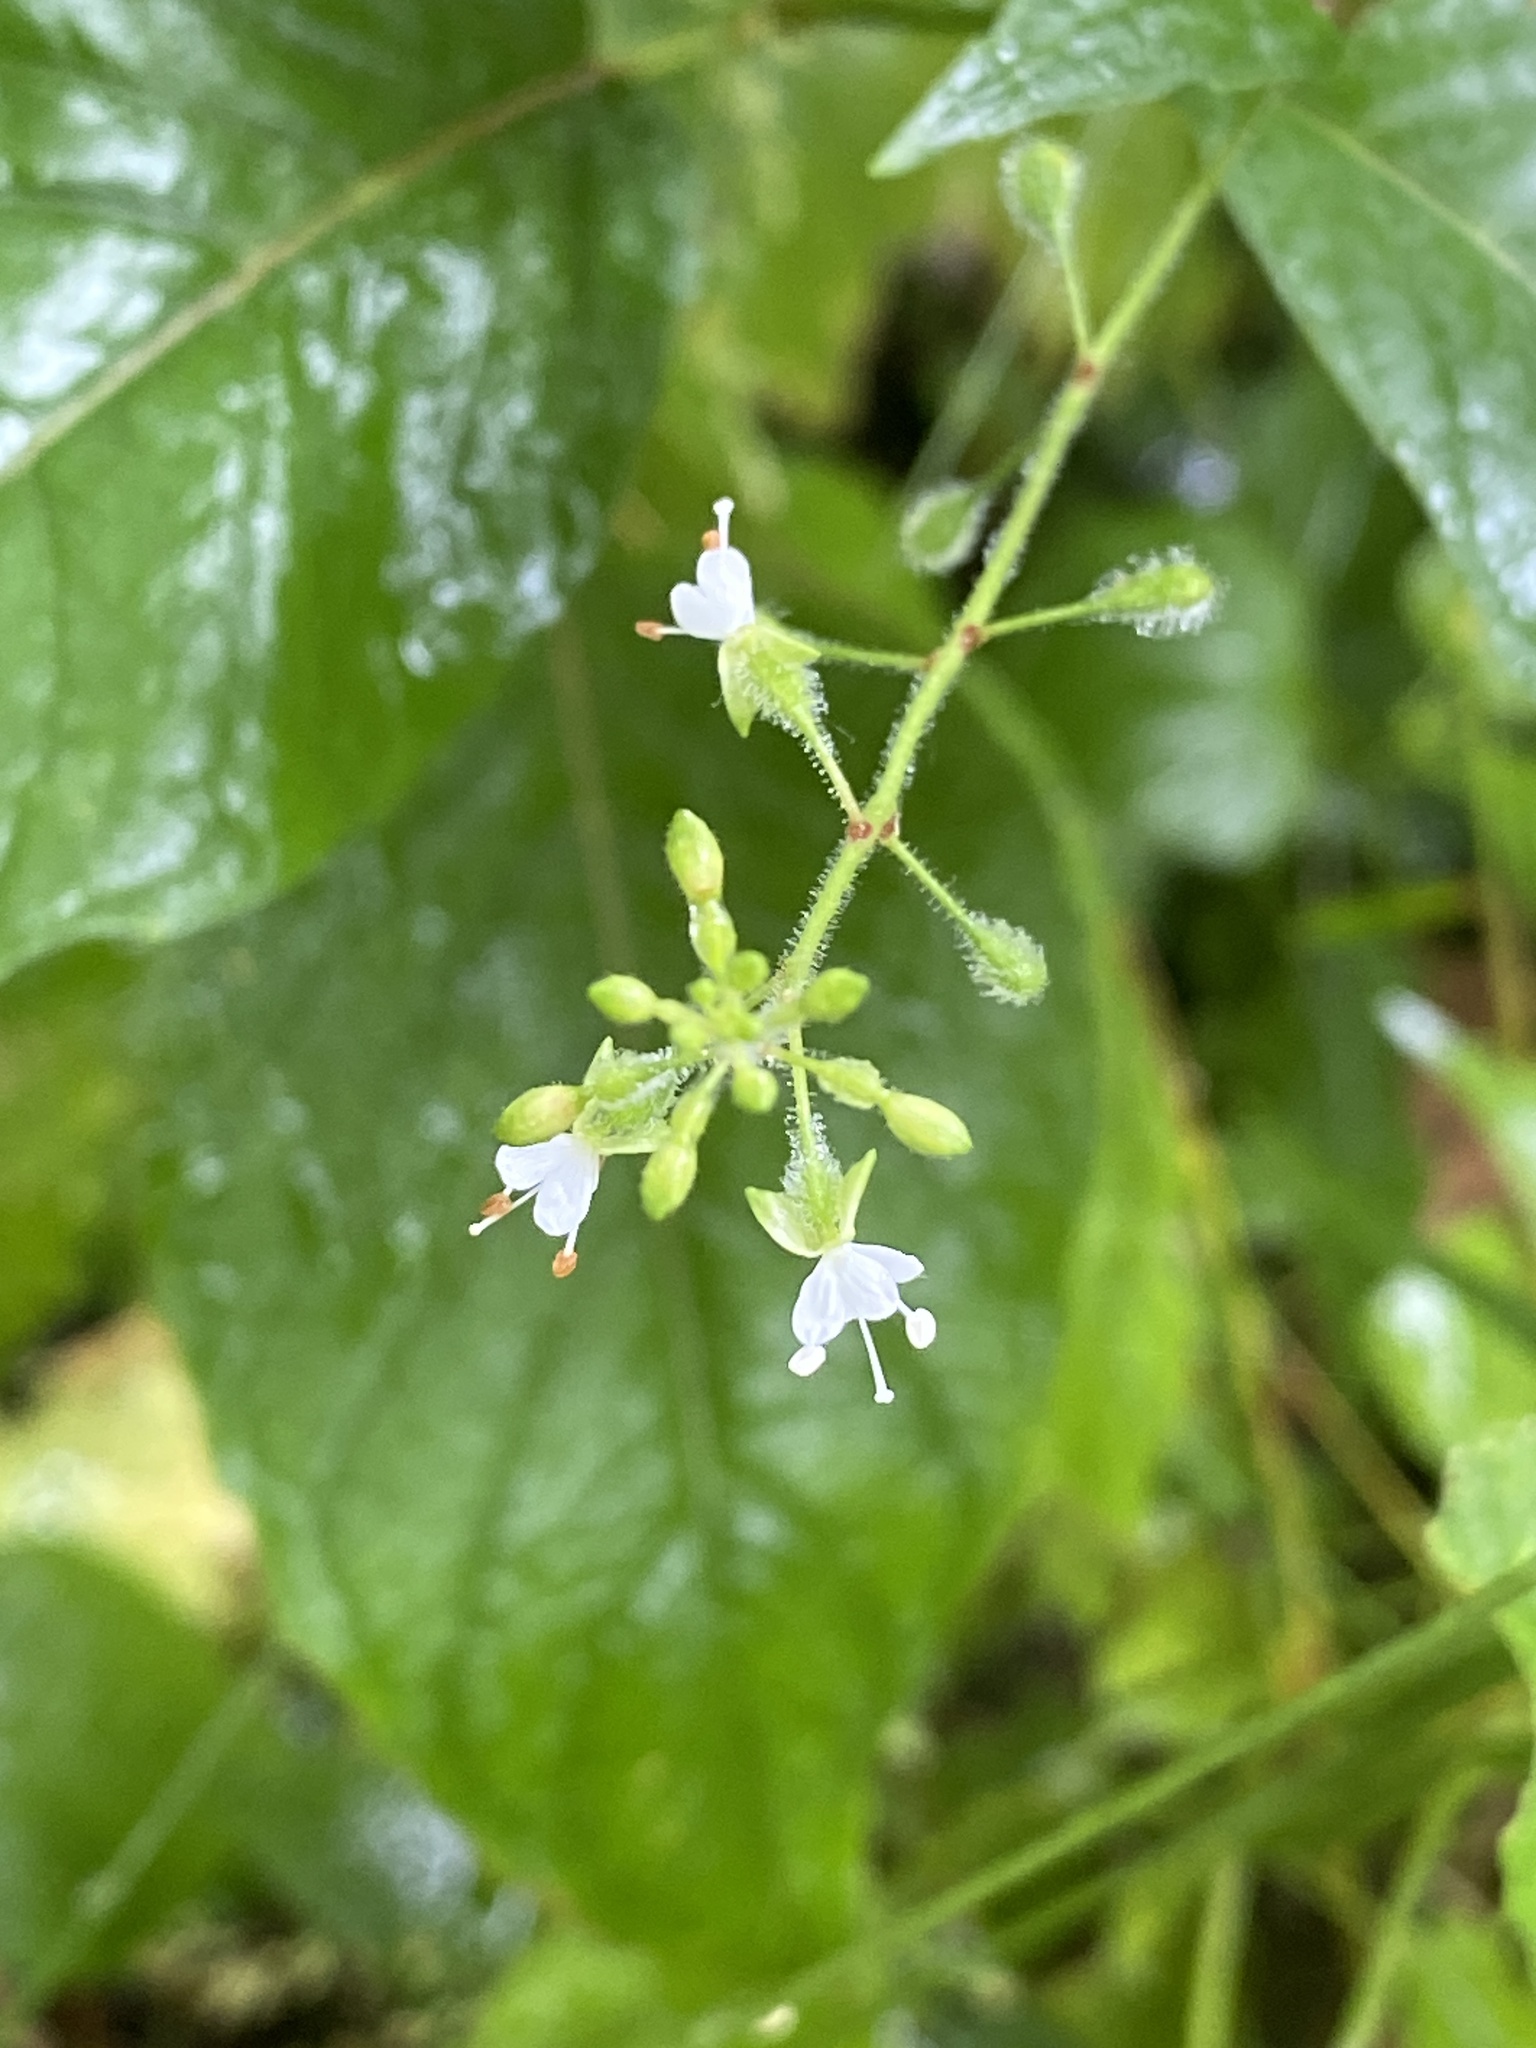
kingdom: Plantae
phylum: Tracheophyta
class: Magnoliopsida
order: Myrtales
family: Onagraceae
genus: Circaea
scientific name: Circaea canadensis
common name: Broad-leaved enchanter's nightshade
